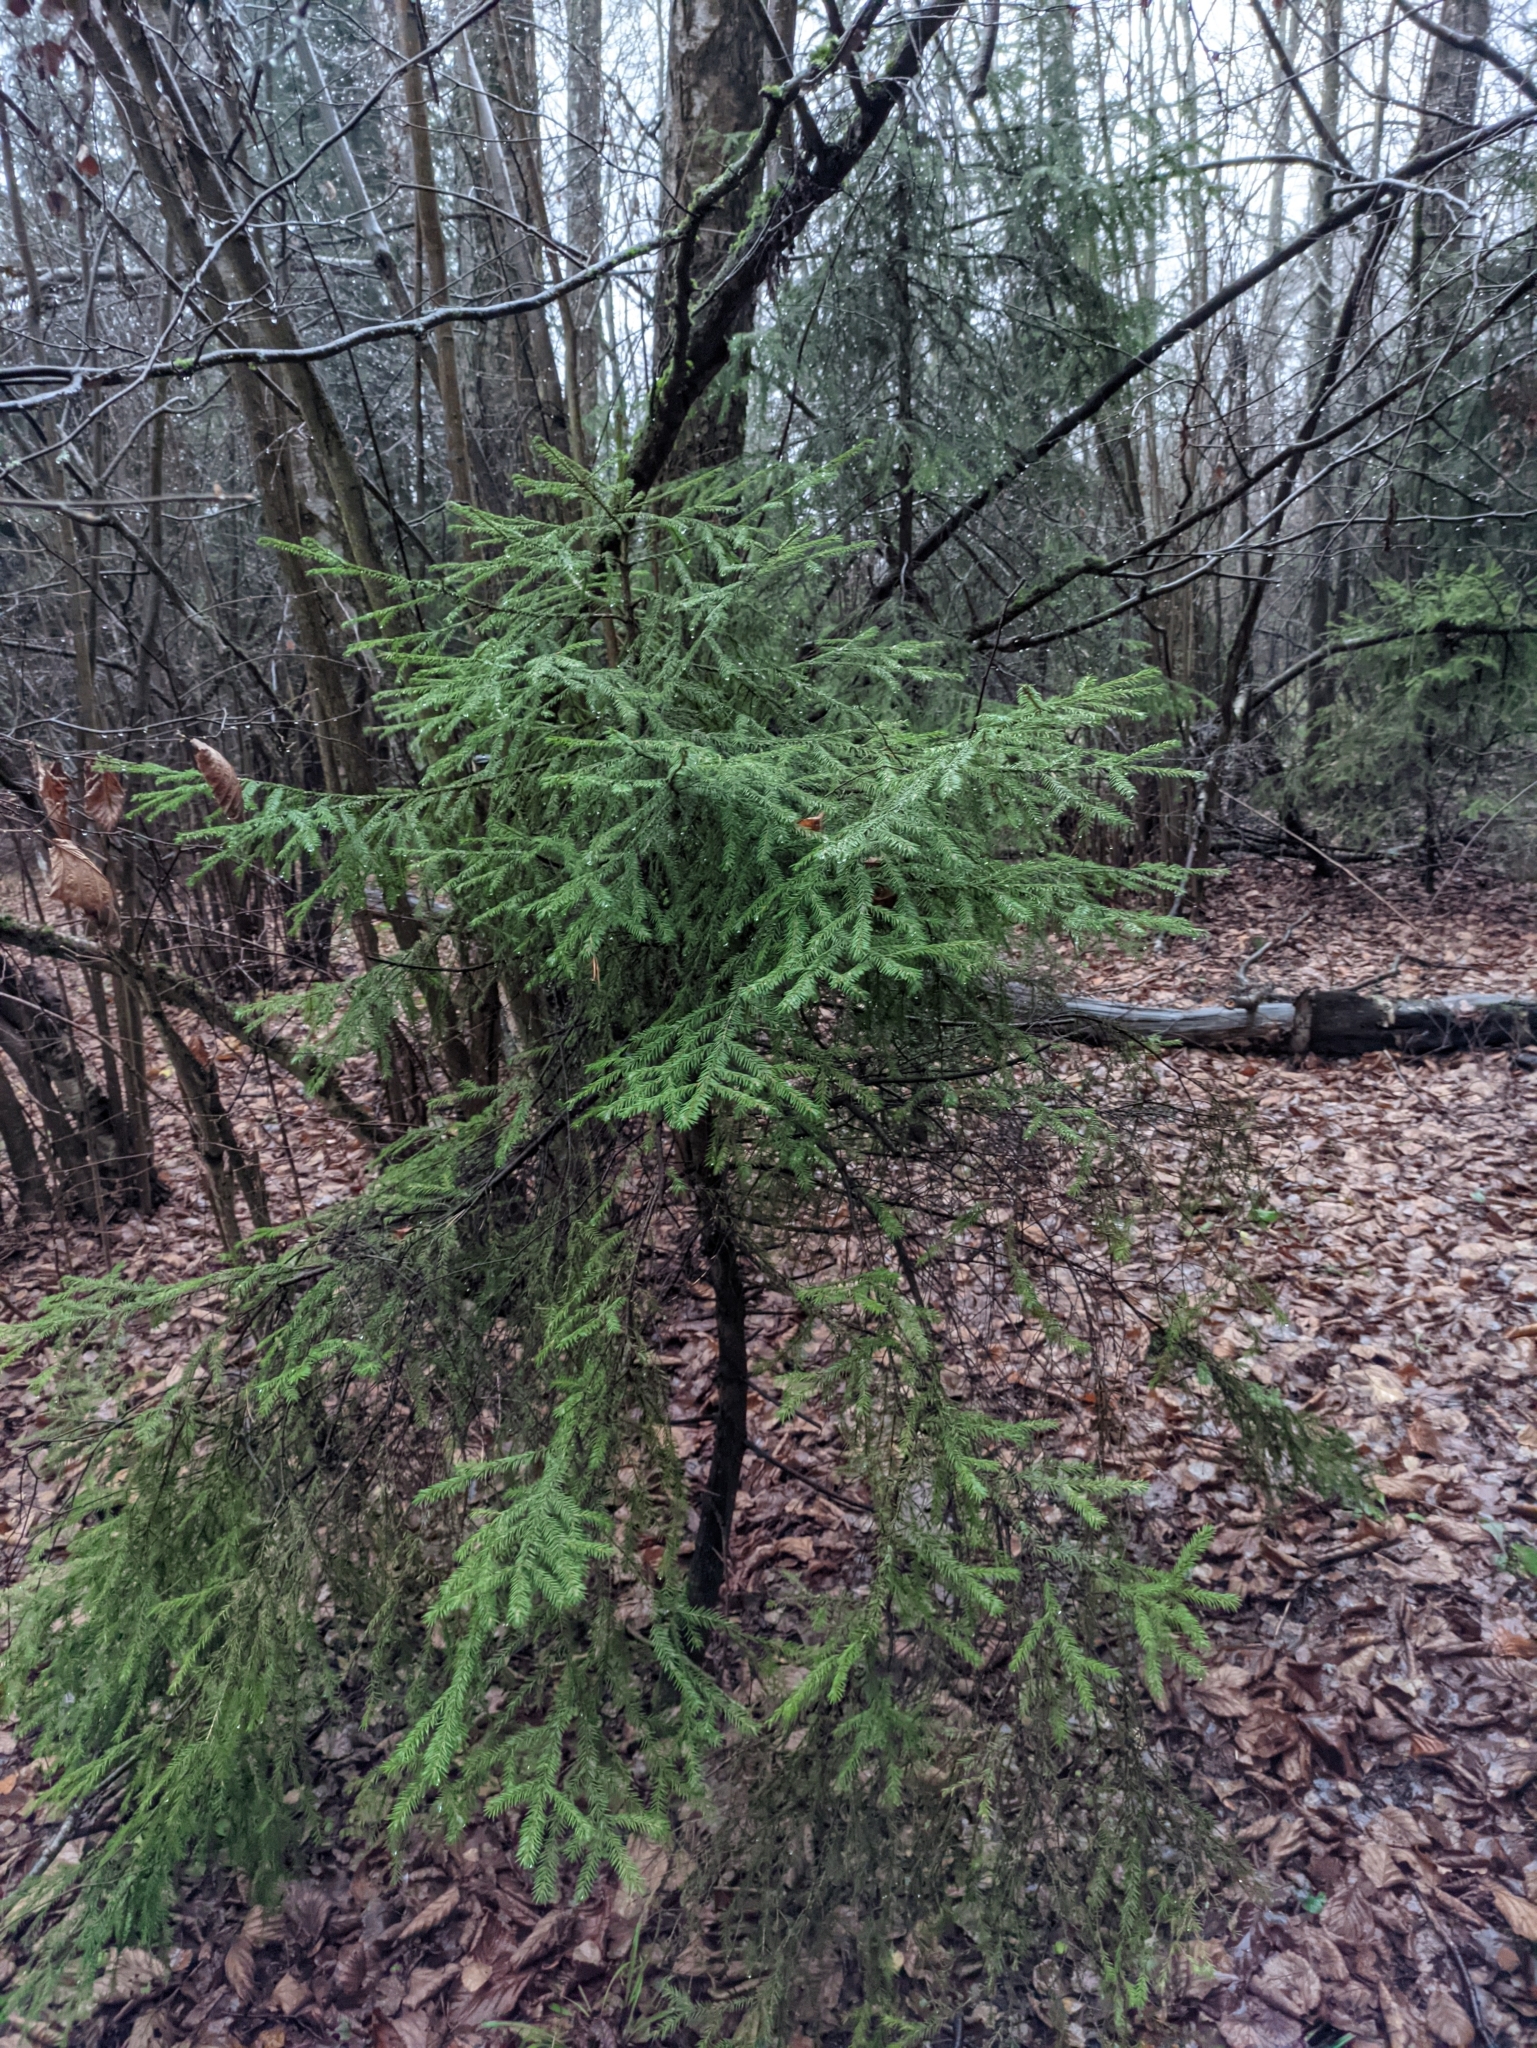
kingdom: Plantae
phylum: Tracheophyta
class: Pinopsida
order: Pinales
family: Pinaceae
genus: Picea
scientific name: Picea abies
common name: Norway spruce
